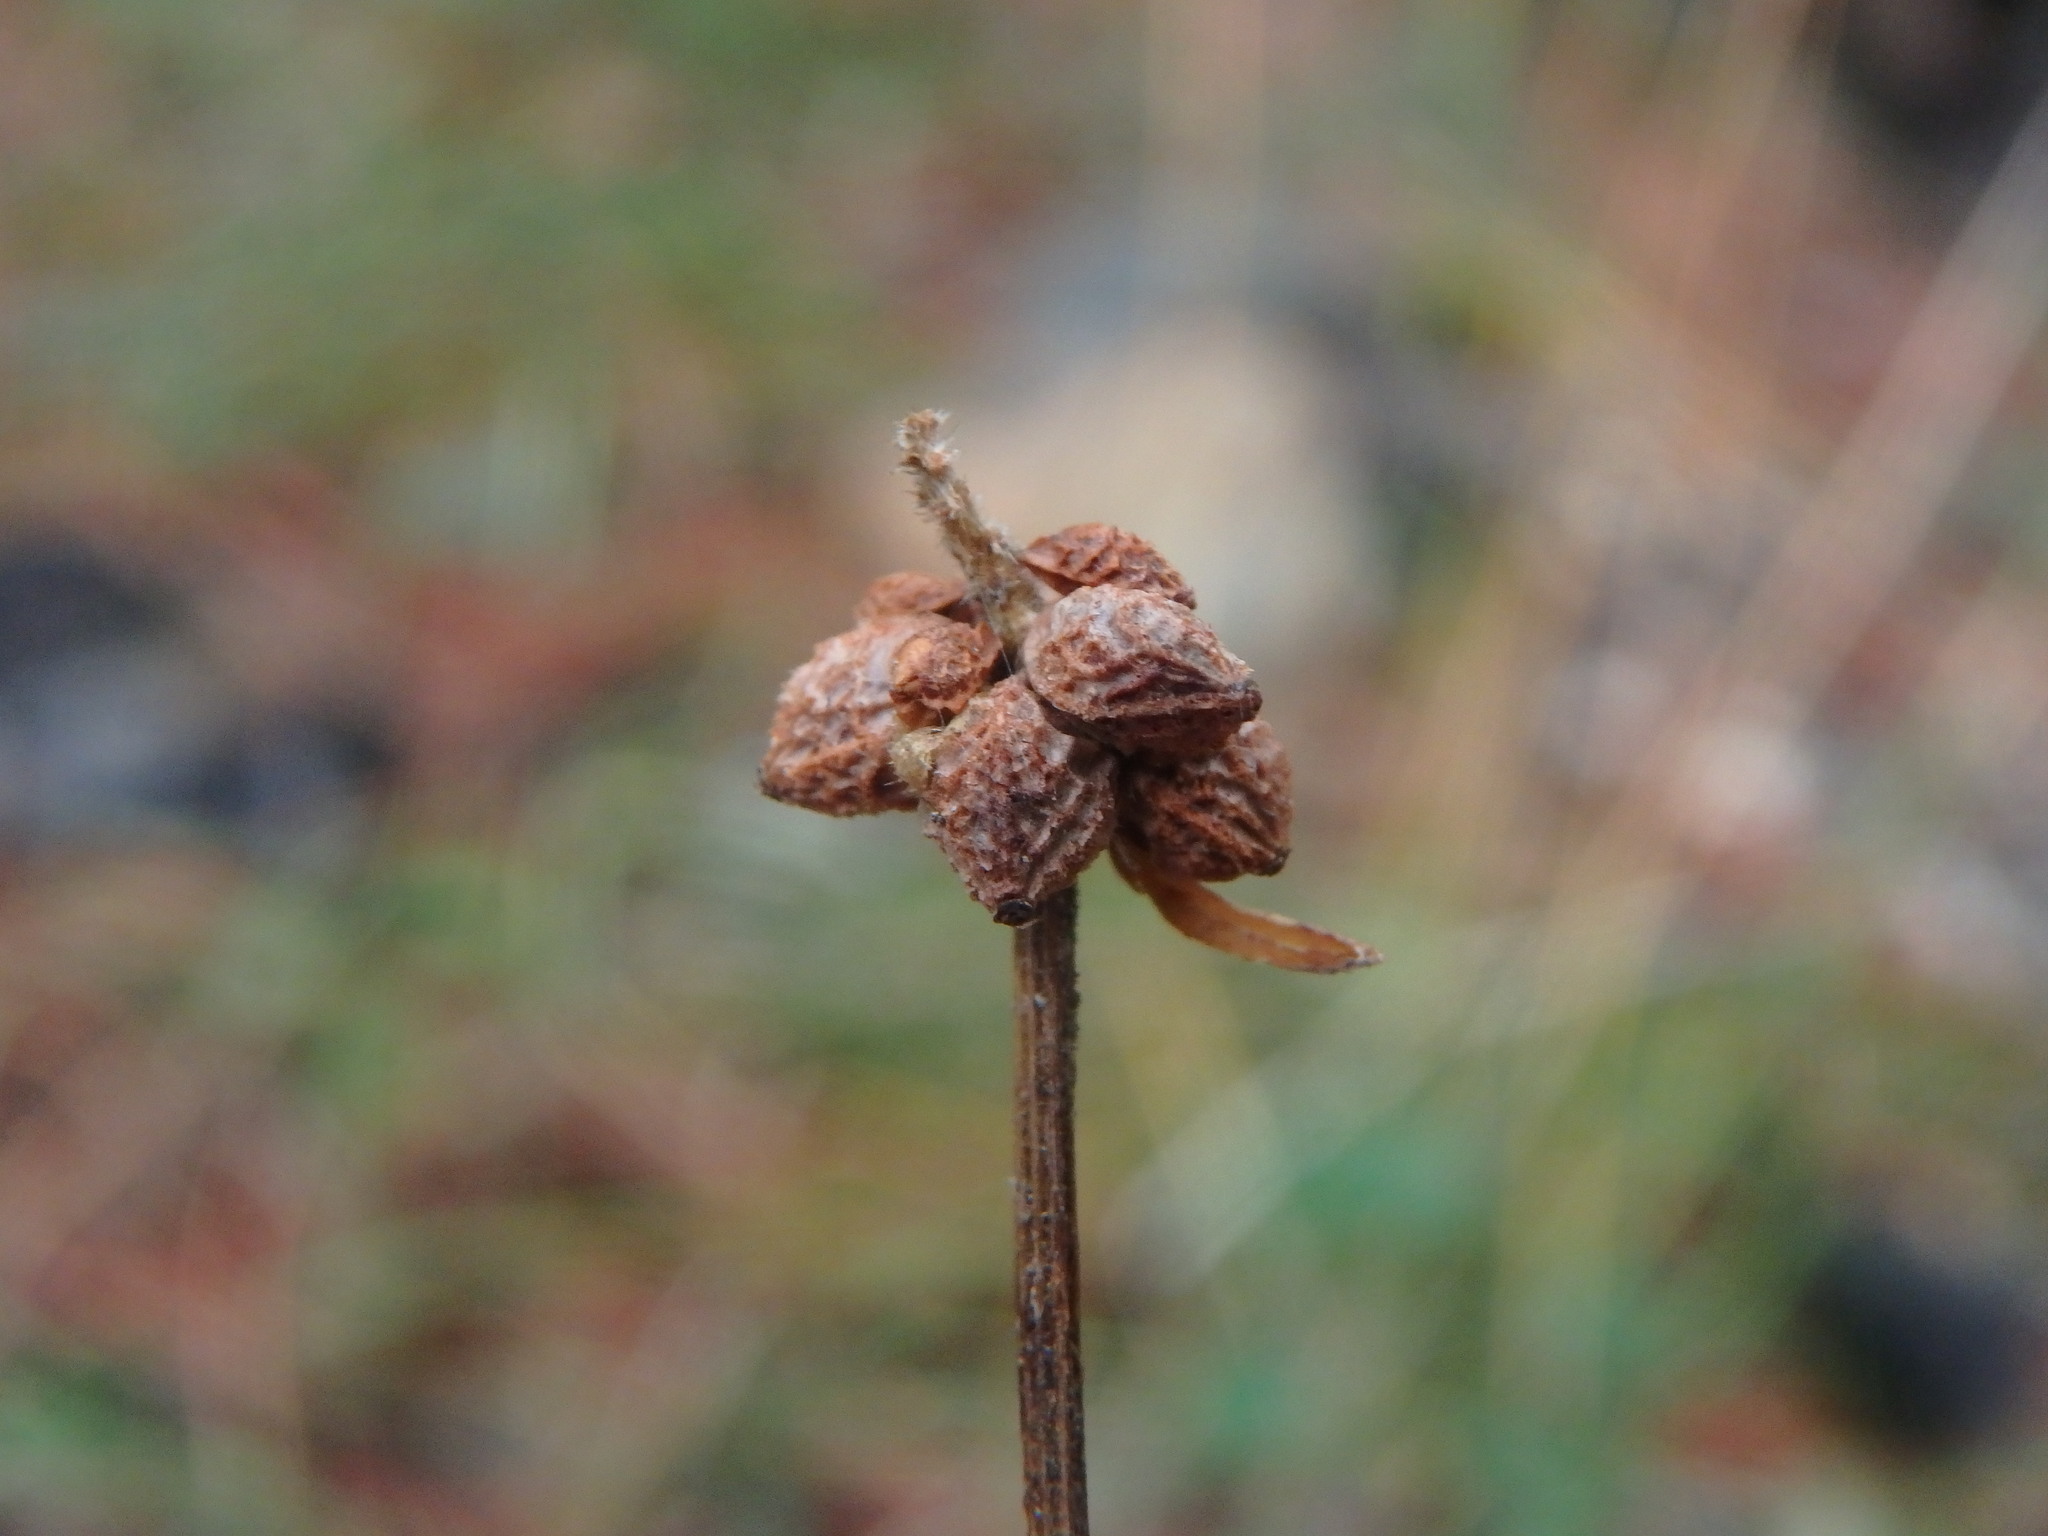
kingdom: Plantae
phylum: Tracheophyta
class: Magnoliopsida
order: Rosales
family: Rosaceae
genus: Poterium
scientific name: Poterium sanguisorba
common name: Salad burnet
